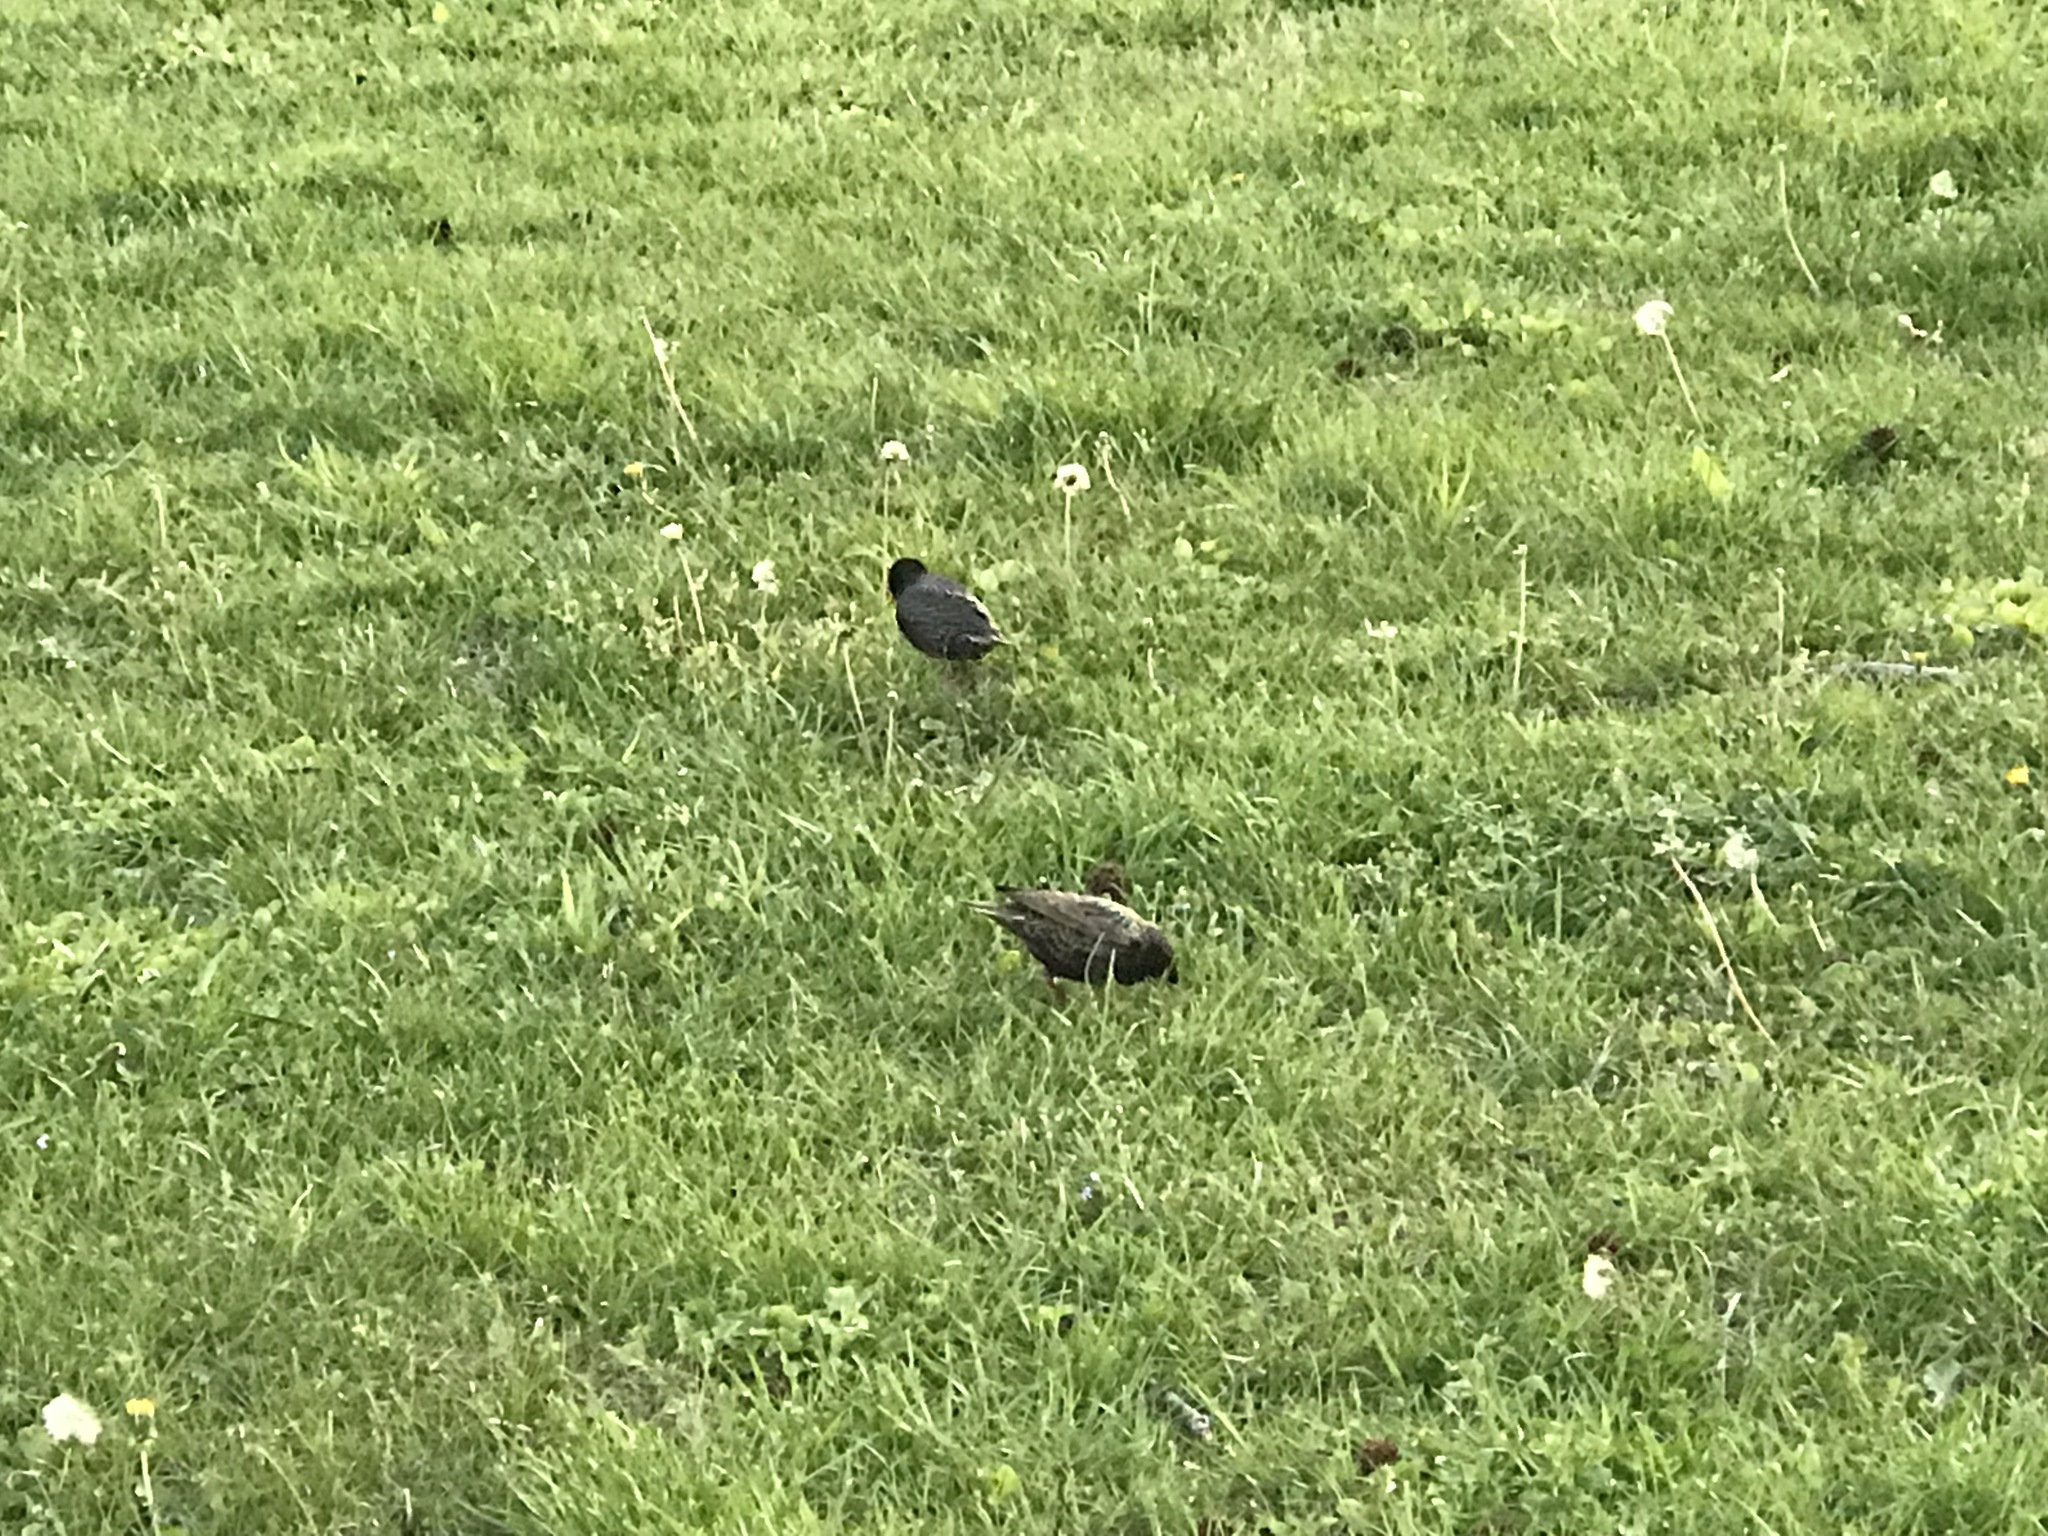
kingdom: Animalia
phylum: Chordata
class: Aves
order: Passeriformes
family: Sturnidae
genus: Sturnus
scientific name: Sturnus vulgaris
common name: Common starling
